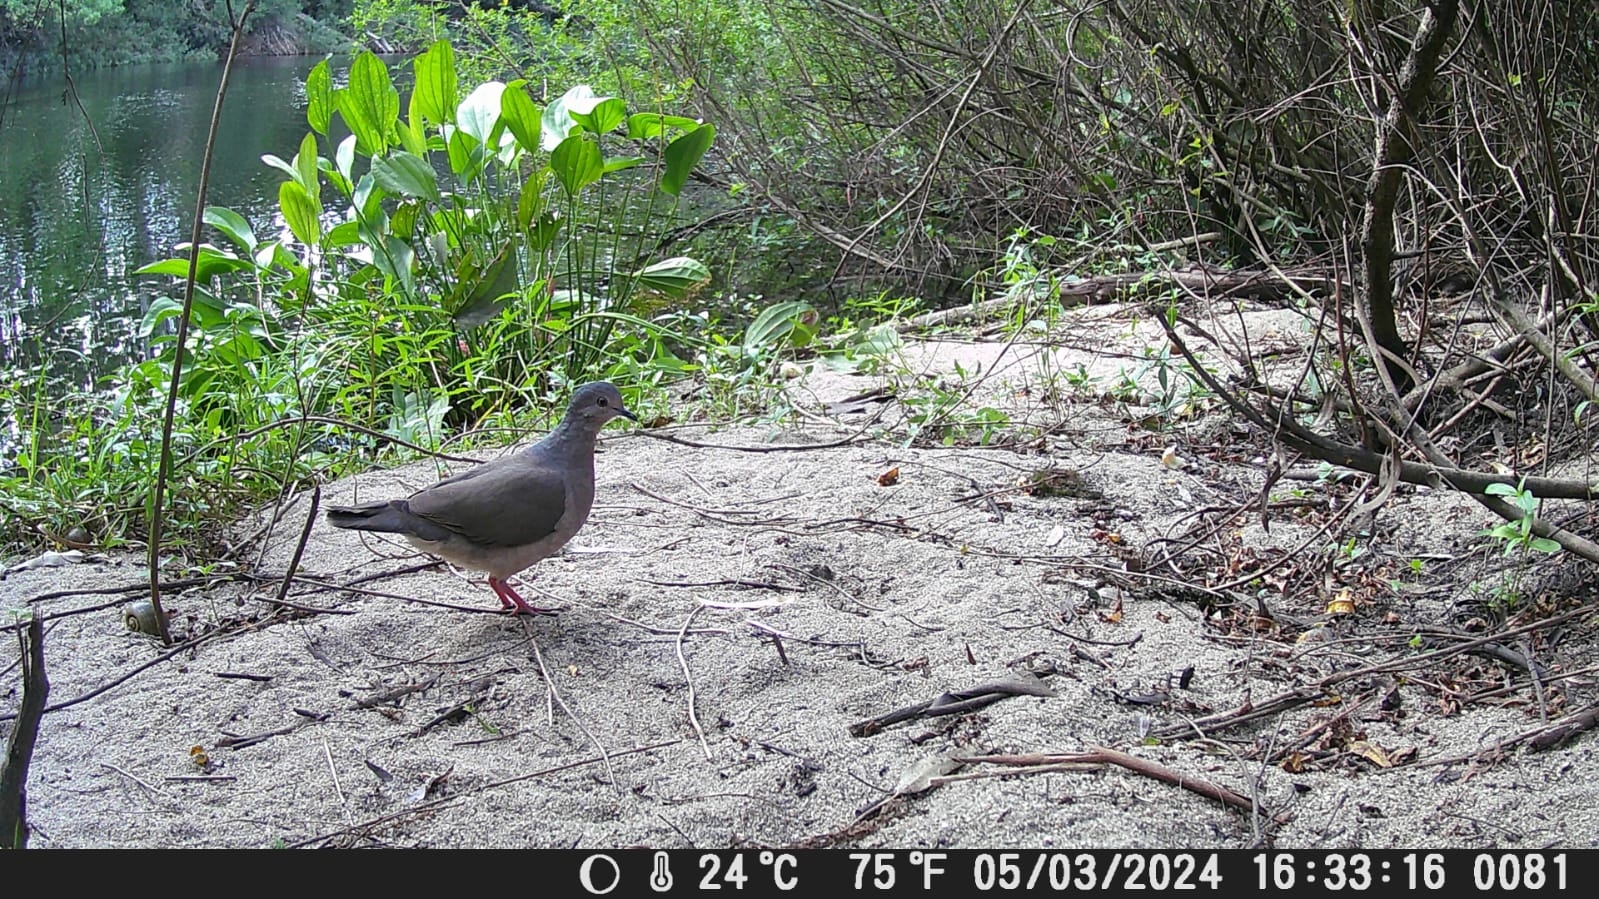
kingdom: Animalia
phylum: Chordata
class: Aves
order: Columbiformes
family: Columbidae
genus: Leptotila
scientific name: Leptotila verreauxi
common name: White-tipped dove
